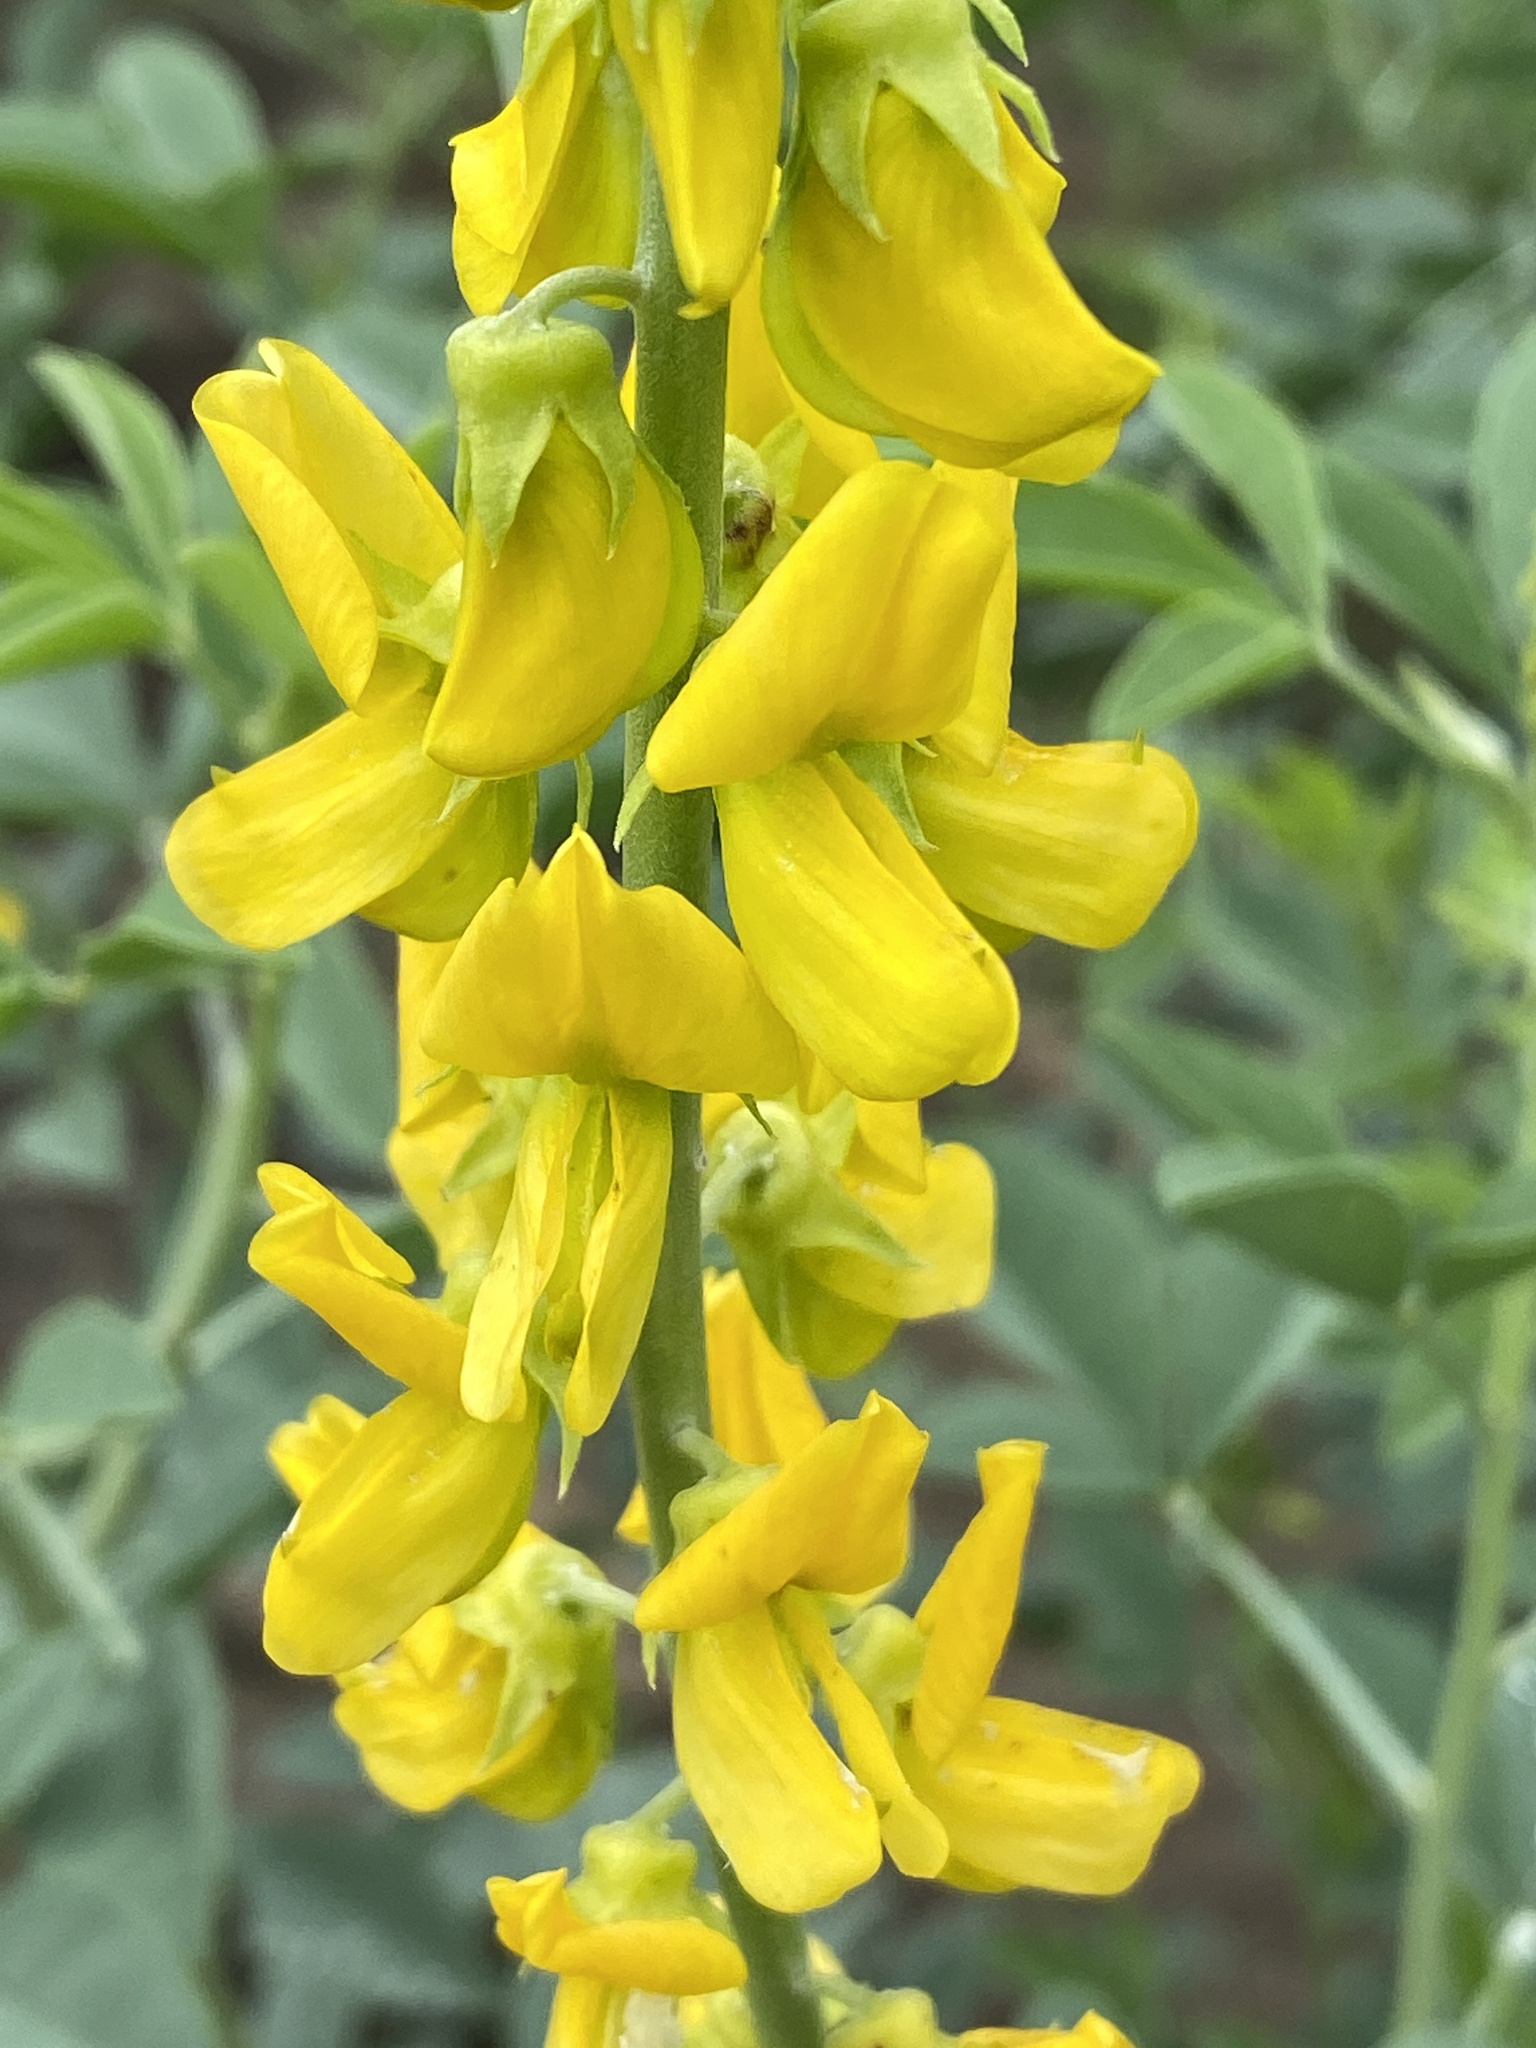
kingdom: Plantae
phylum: Tracheophyta
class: Magnoliopsida
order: Fabales
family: Fabaceae
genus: Crotalaria
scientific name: Crotalaria argyraea
